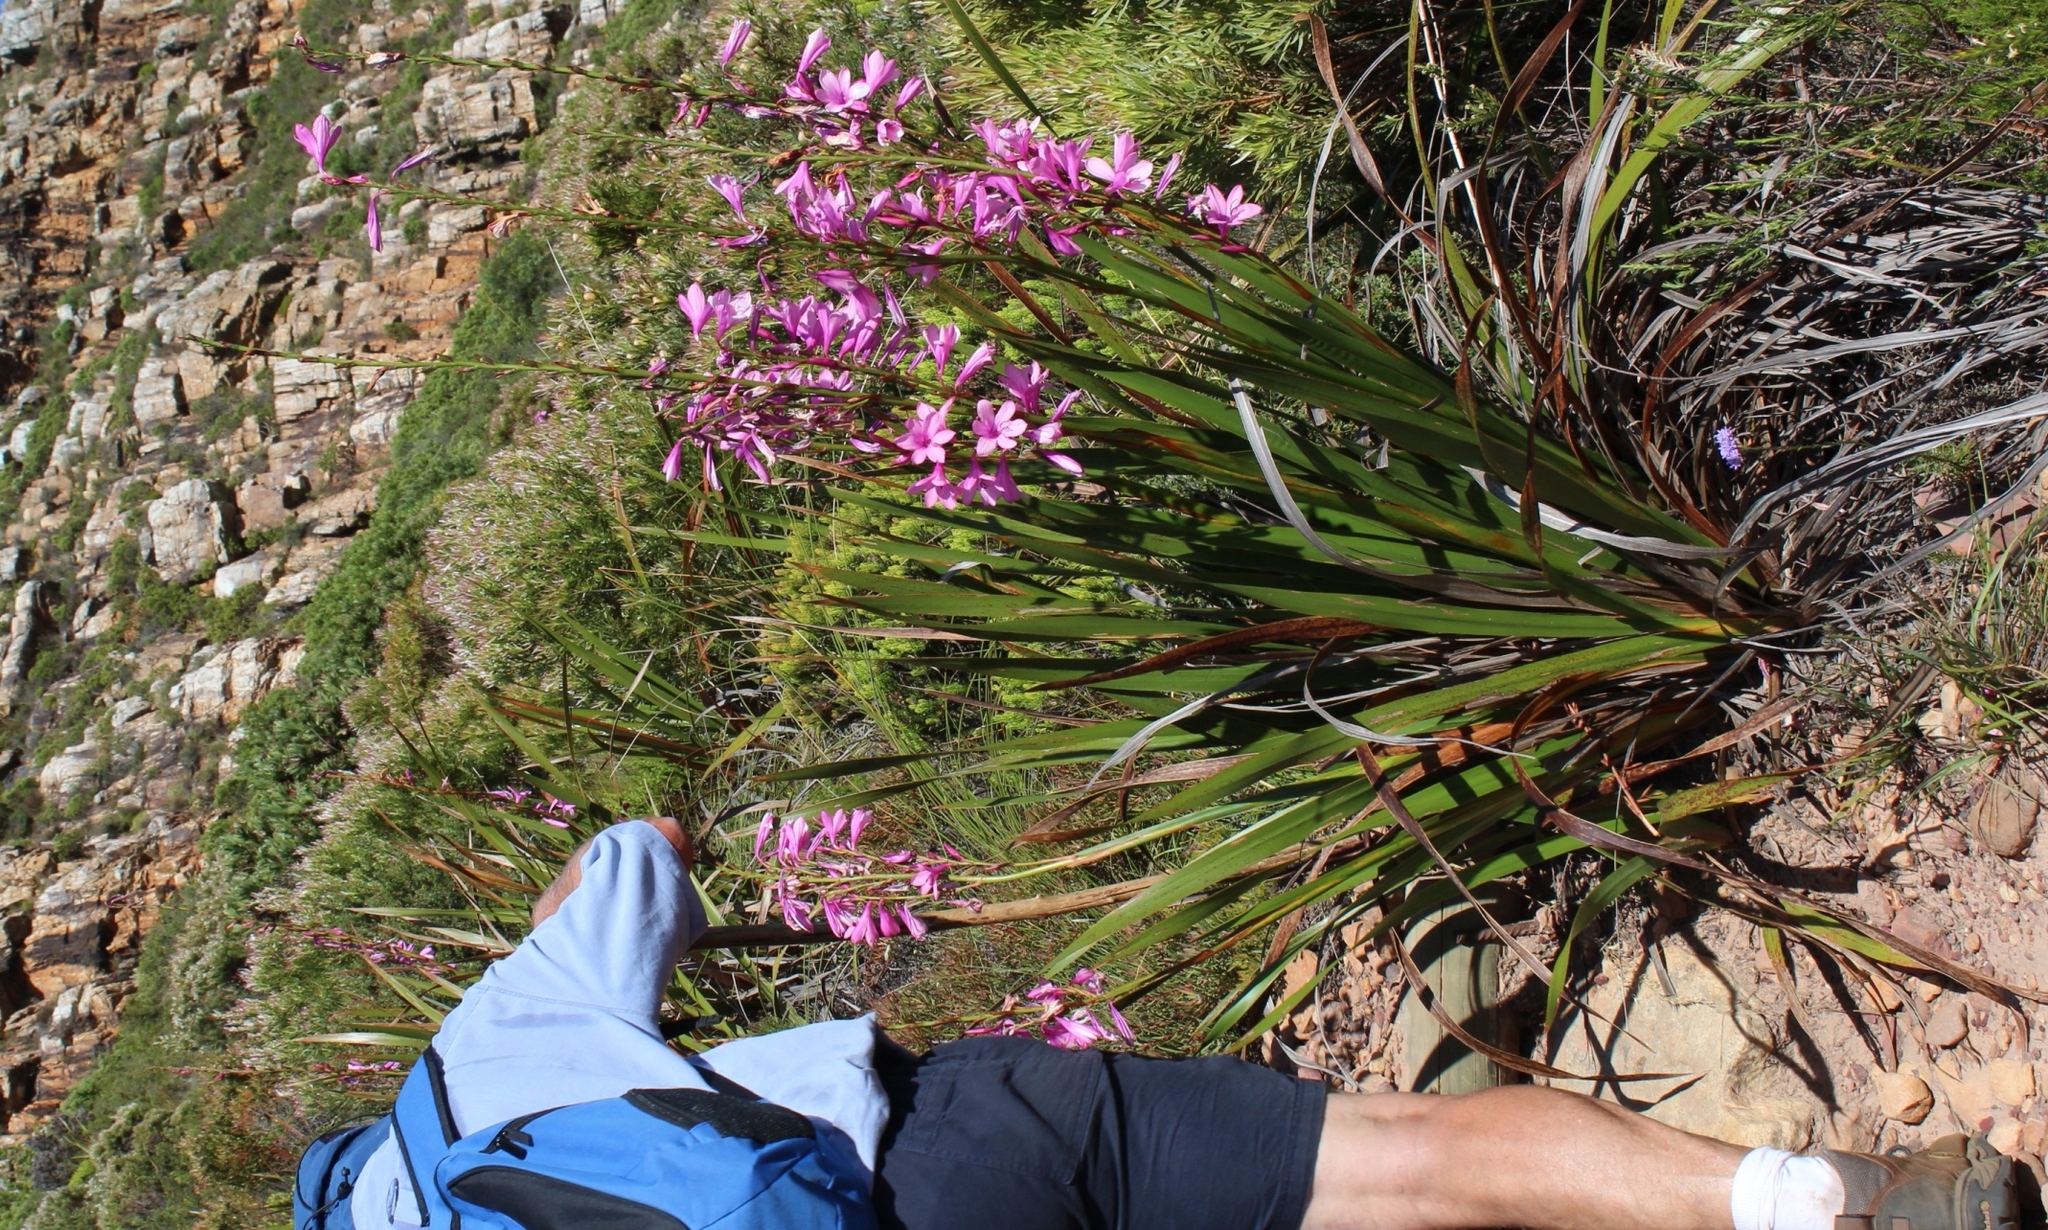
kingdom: Plantae
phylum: Tracheophyta
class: Liliopsida
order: Asparagales
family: Iridaceae
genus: Watsonia
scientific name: Watsonia borbonica
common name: Bugle-lily
